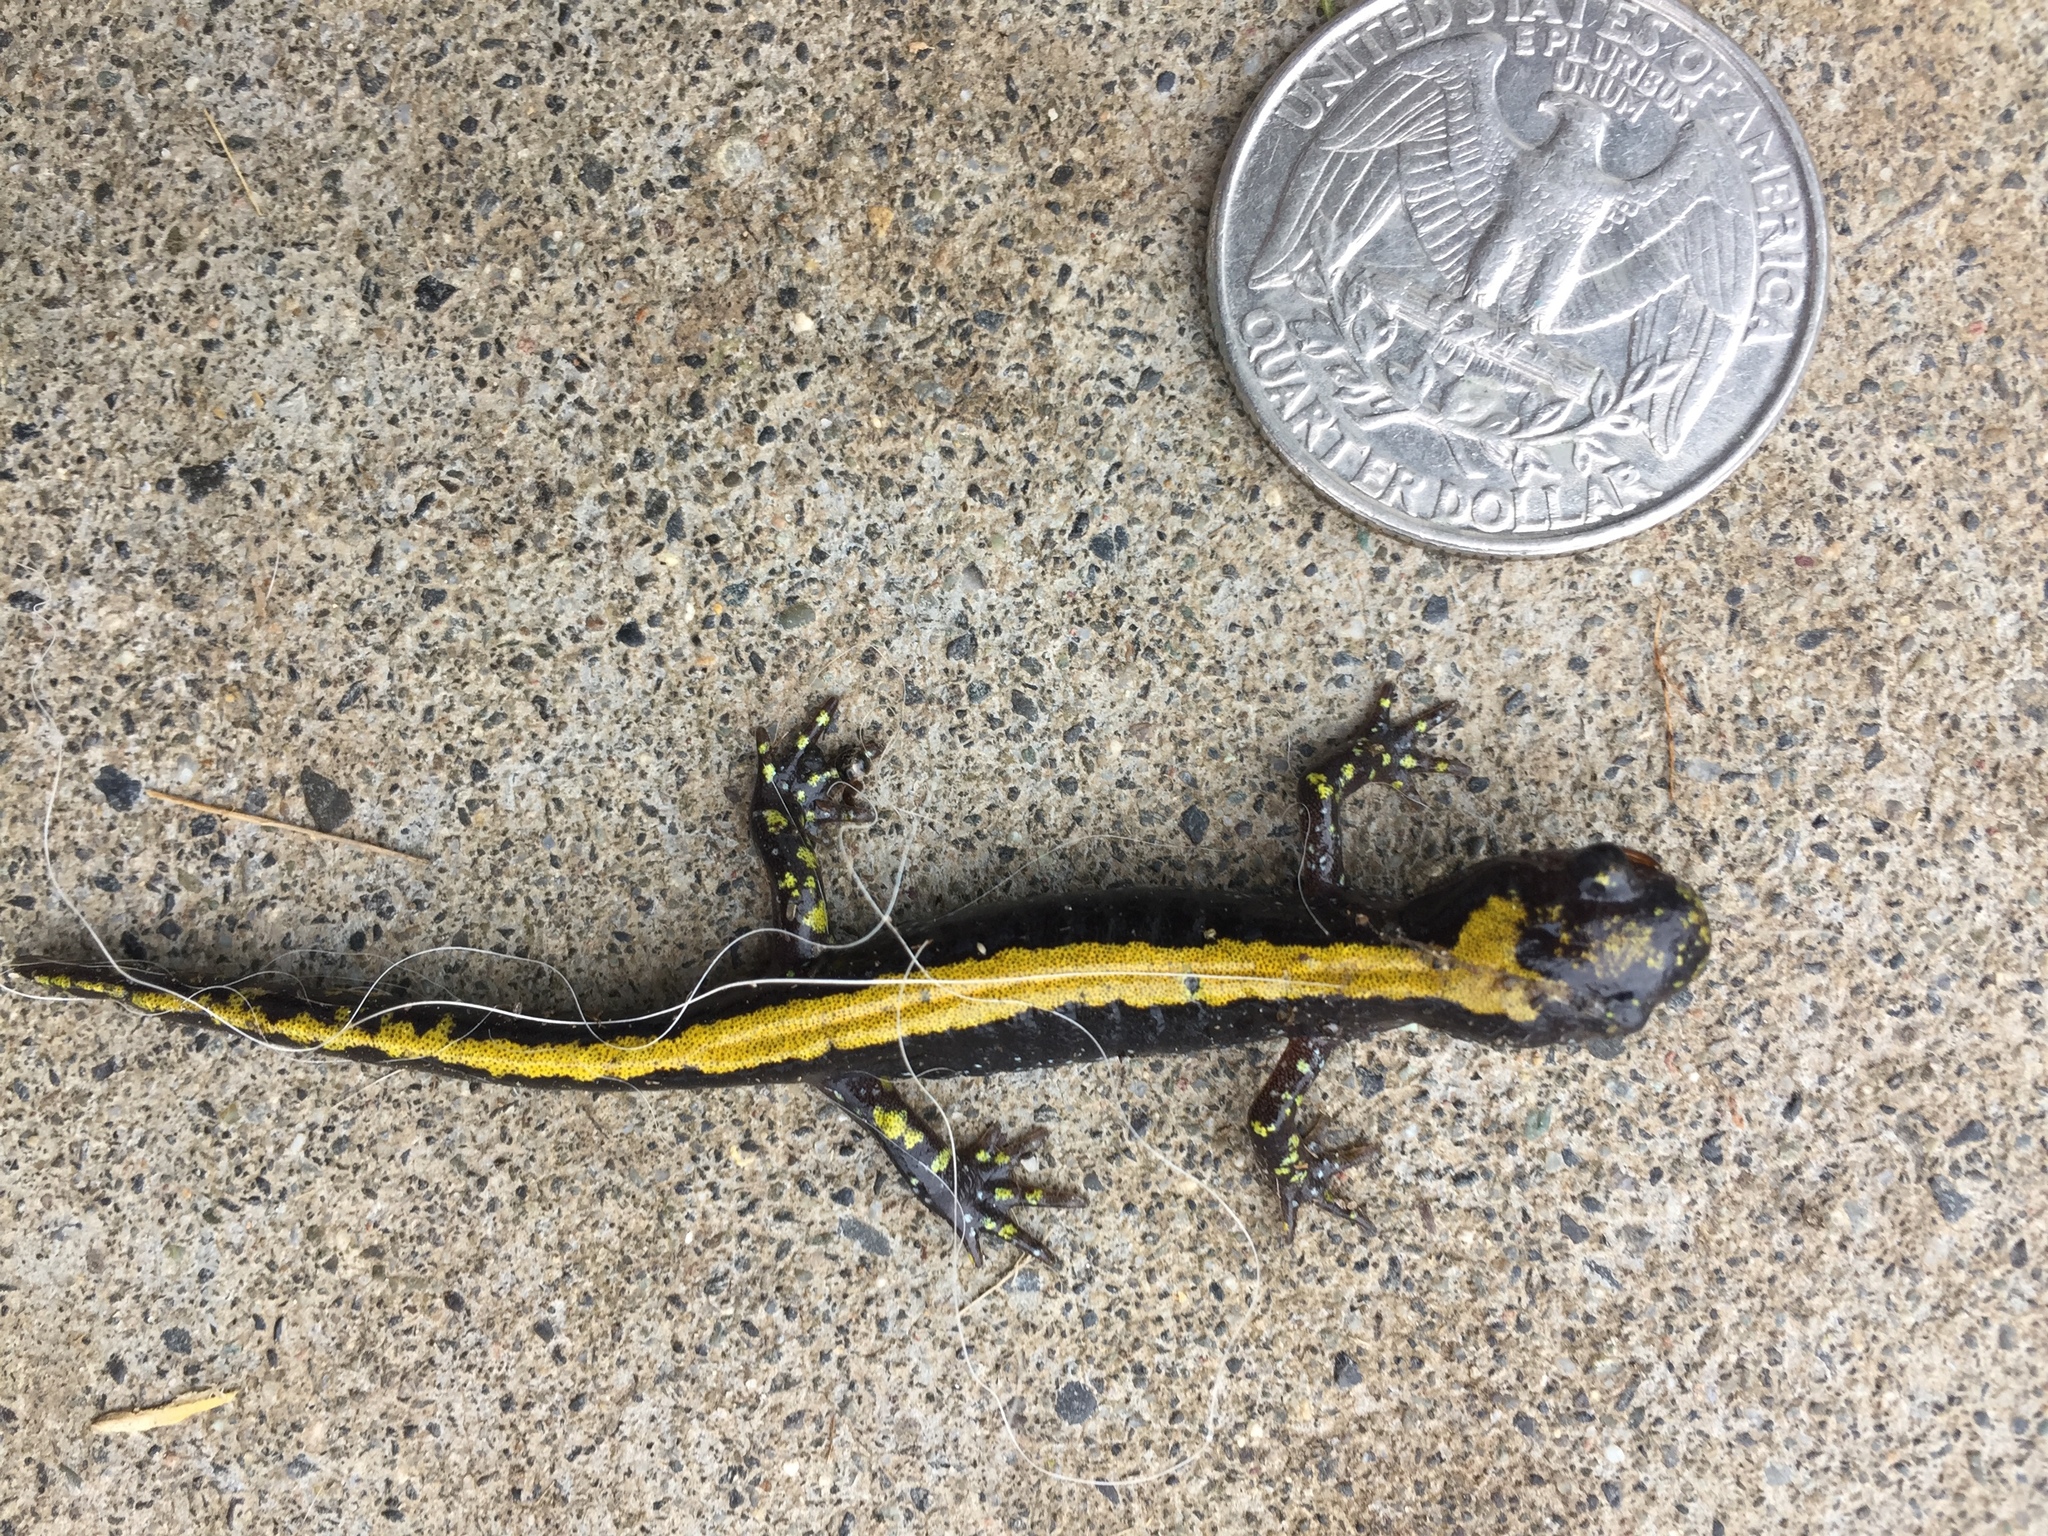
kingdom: Animalia
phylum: Chordata
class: Amphibia
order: Caudata
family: Ambystomatidae
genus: Ambystoma
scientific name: Ambystoma macrodactylum
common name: Long-toed salamander
